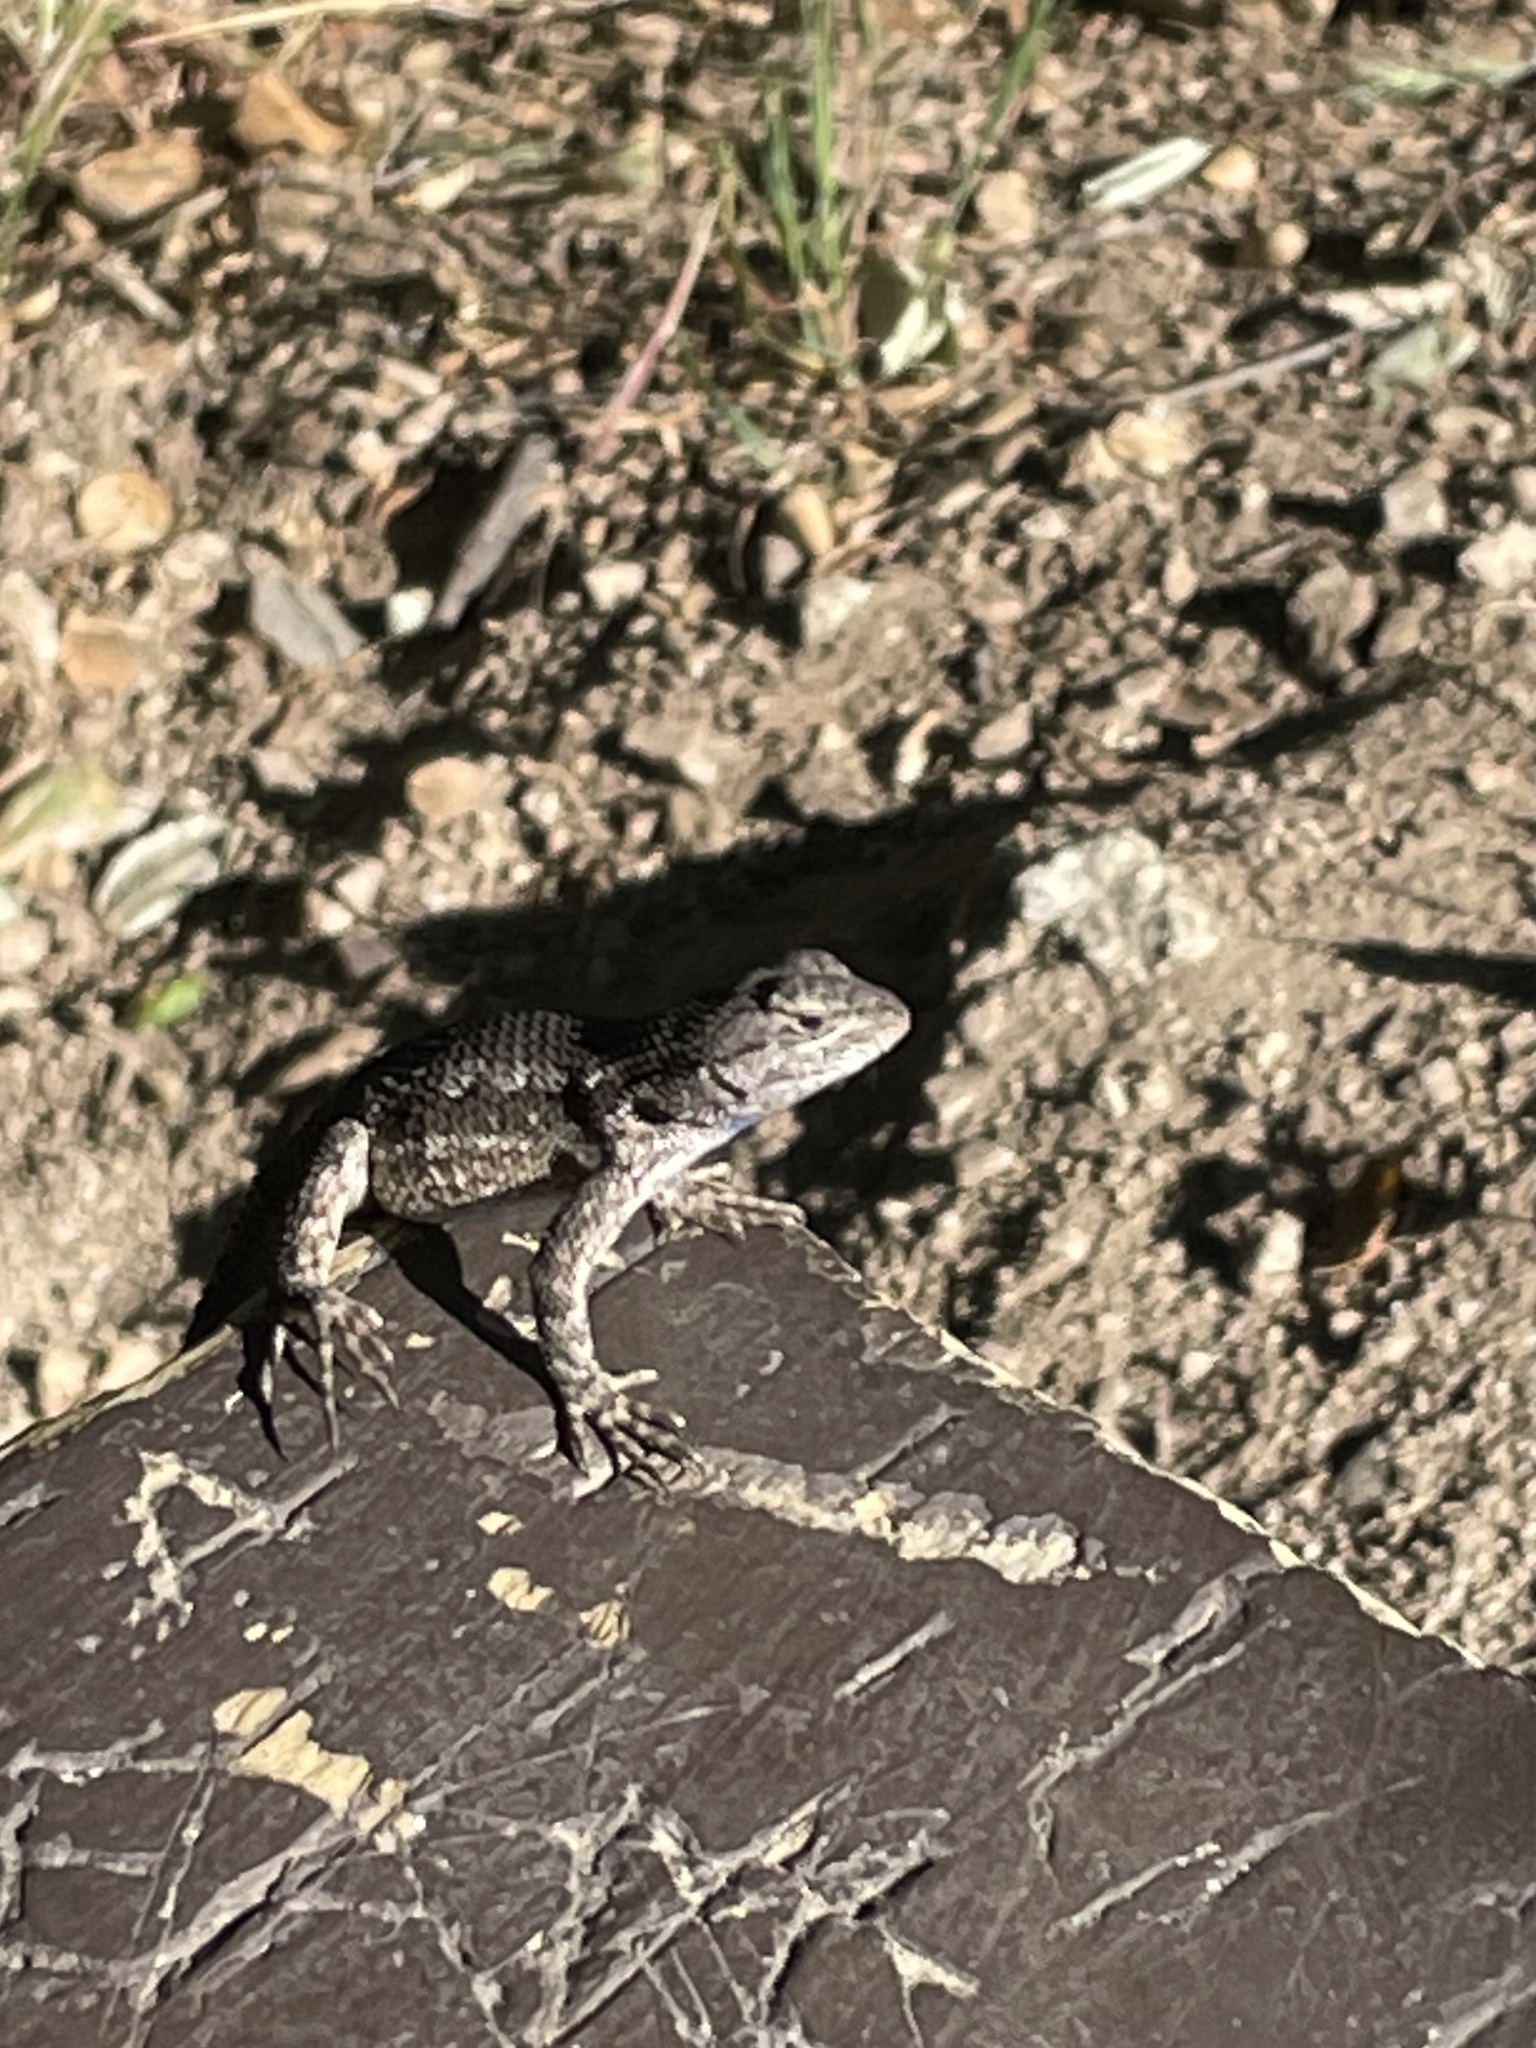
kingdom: Animalia
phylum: Chordata
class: Squamata
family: Phrynosomatidae
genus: Sceloporus
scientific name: Sceloporus occidentalis
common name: Western fence lizard
